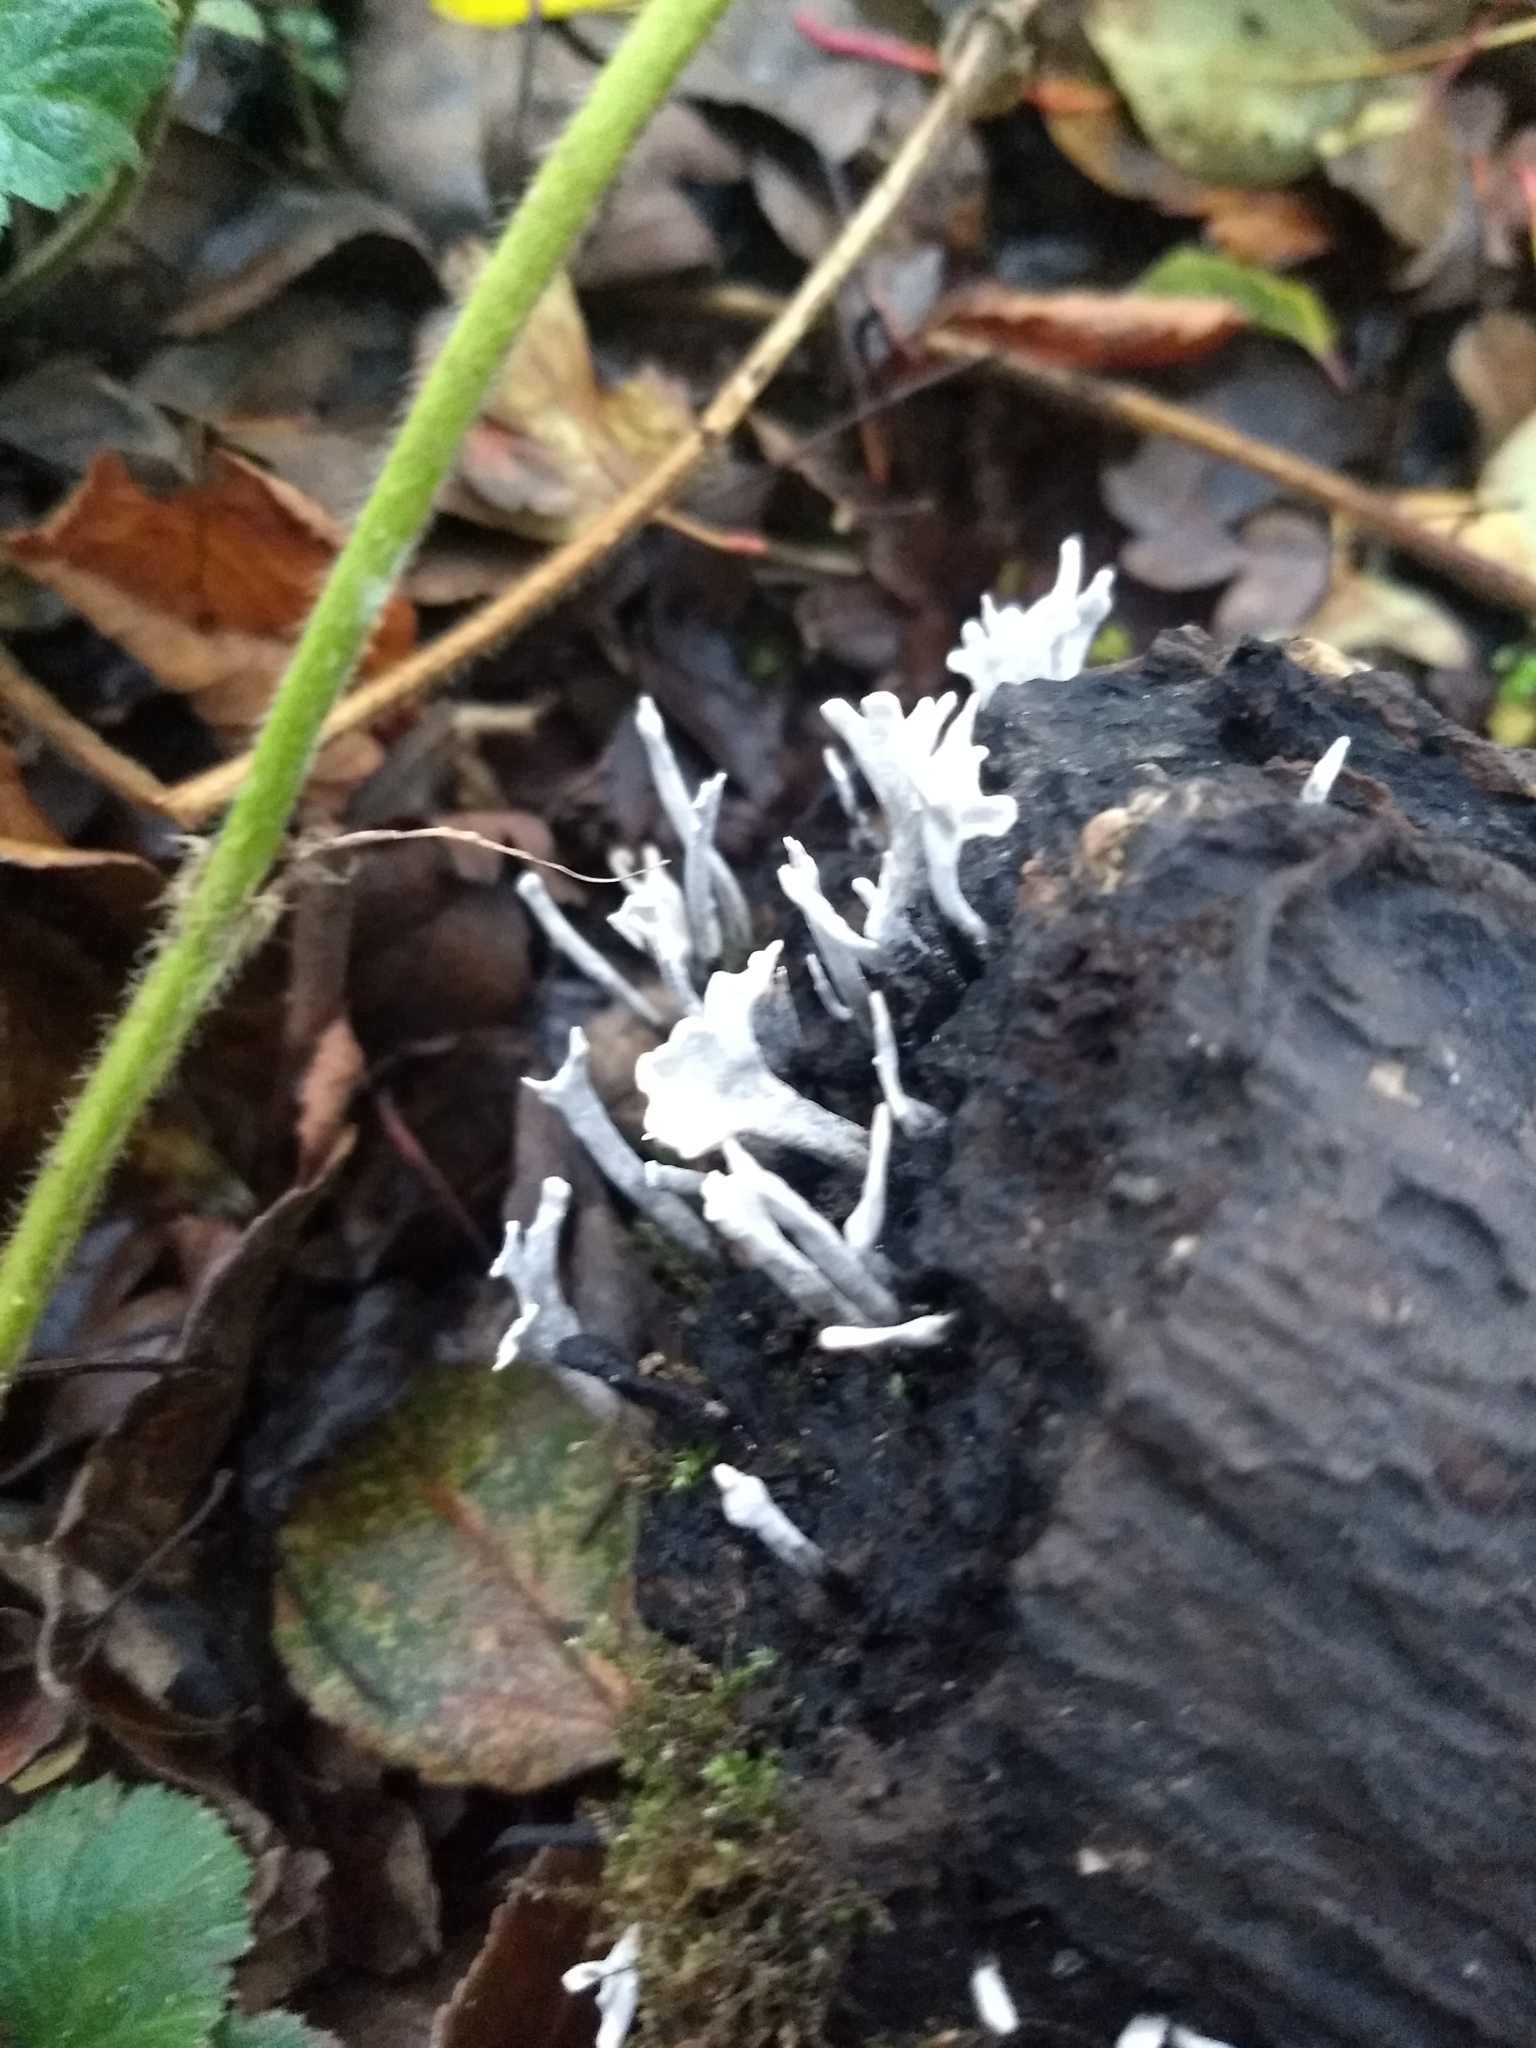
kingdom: Fungi
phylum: Ascomycota
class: Sordariomycetes
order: Xylariales
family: Xylariaceae
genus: Xylaria
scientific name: Xylaria hypoxylon
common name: Candle-snuff fungus
